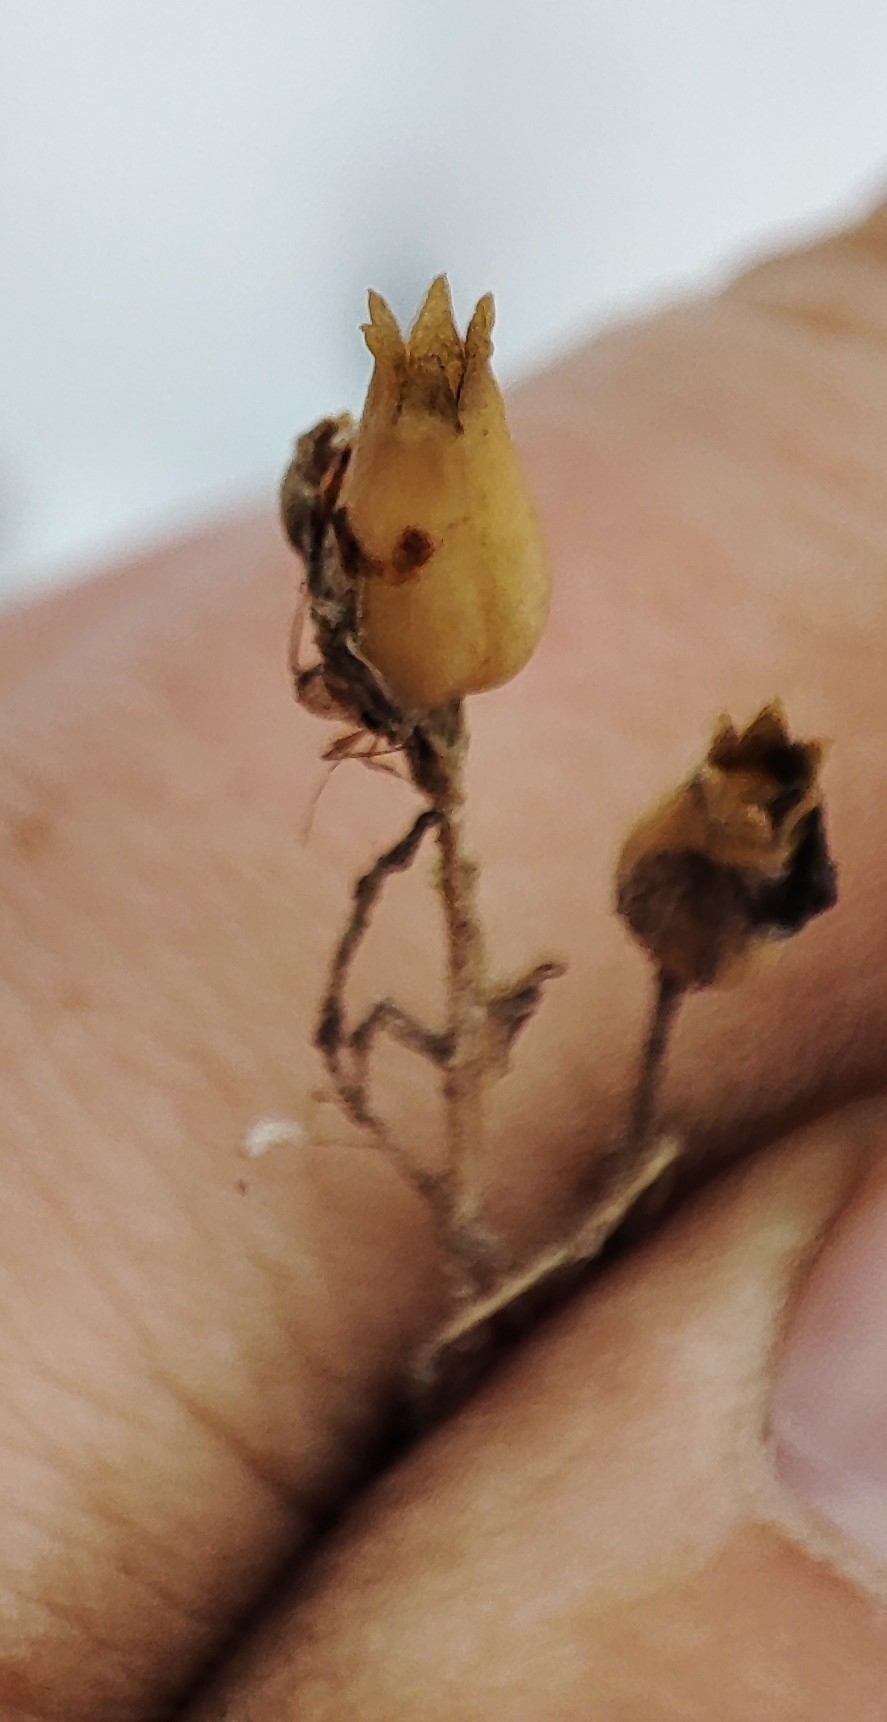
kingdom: Plantae
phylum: Tracheophyta
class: Magnoliopsida
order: Caryophyllales
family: Caryophyllaceae
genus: Silene
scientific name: Silene nutans
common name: Nottingham catchfly
